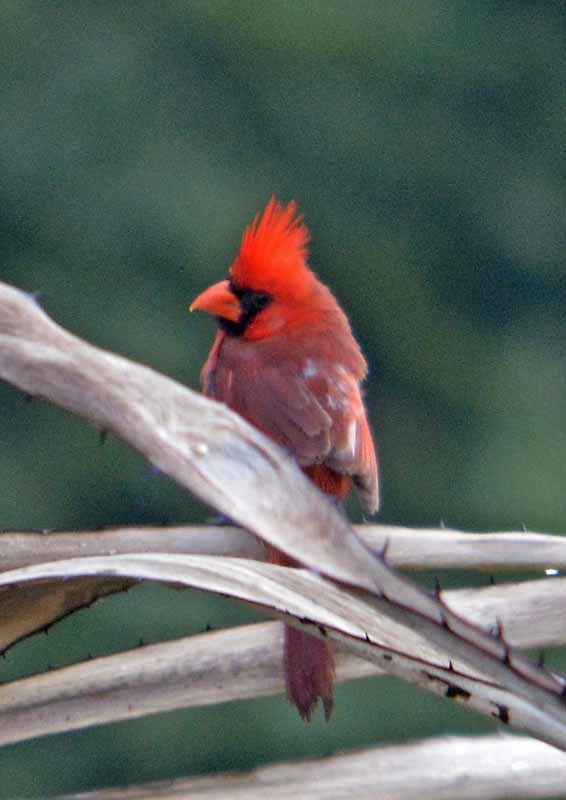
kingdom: Animalia
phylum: Chordata
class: Aves
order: Passeriformes
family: Cardinalidae
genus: Cardinalis
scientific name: Cardinalis cardinalis
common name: Northern cardinal
